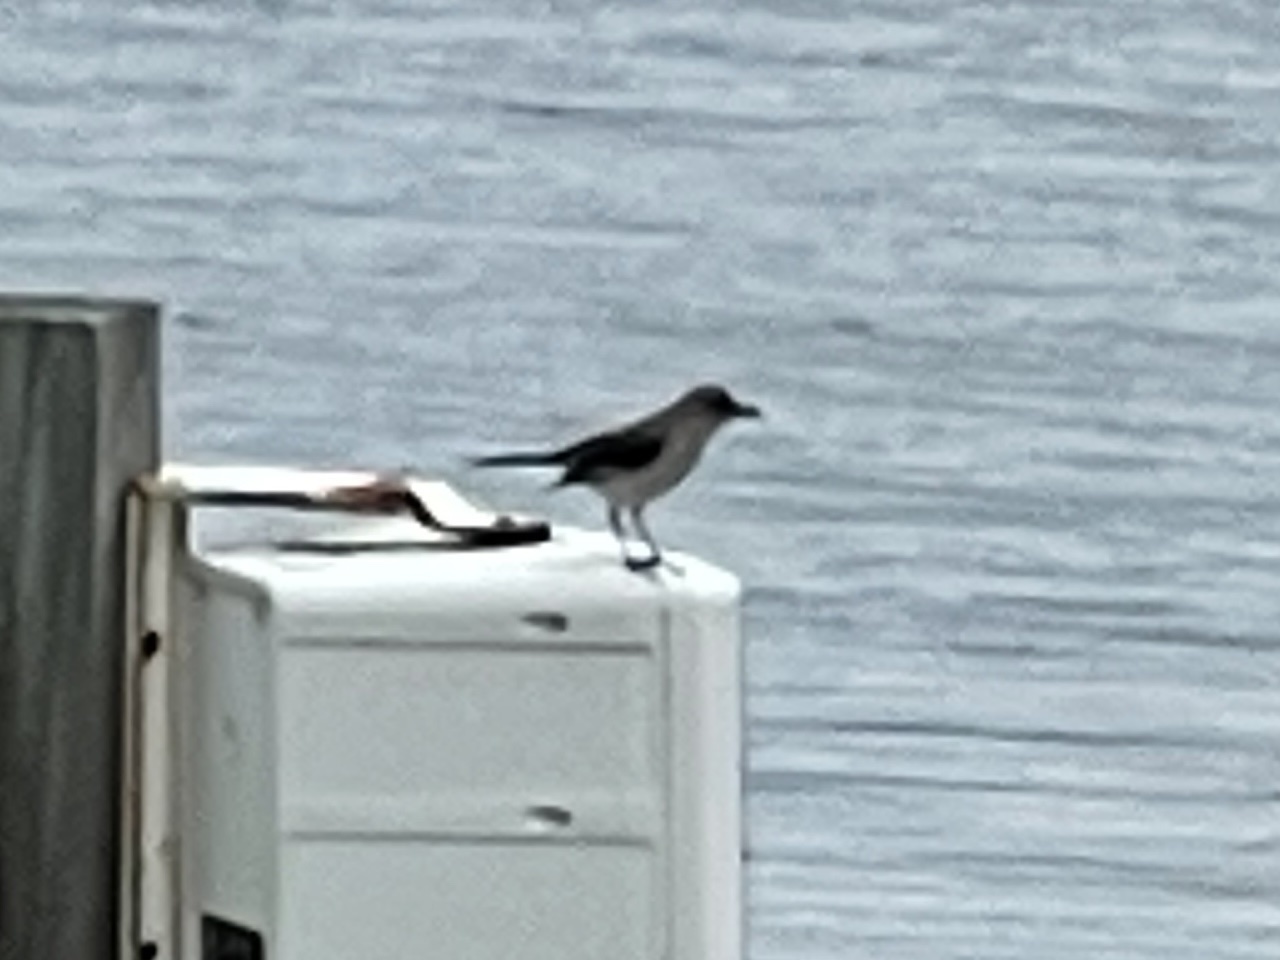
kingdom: Animalia
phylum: Chordata
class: Aves
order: Passeriformes
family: Mimidae
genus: Mimus
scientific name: Mimus polyglottos
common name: Northern mockingbird
